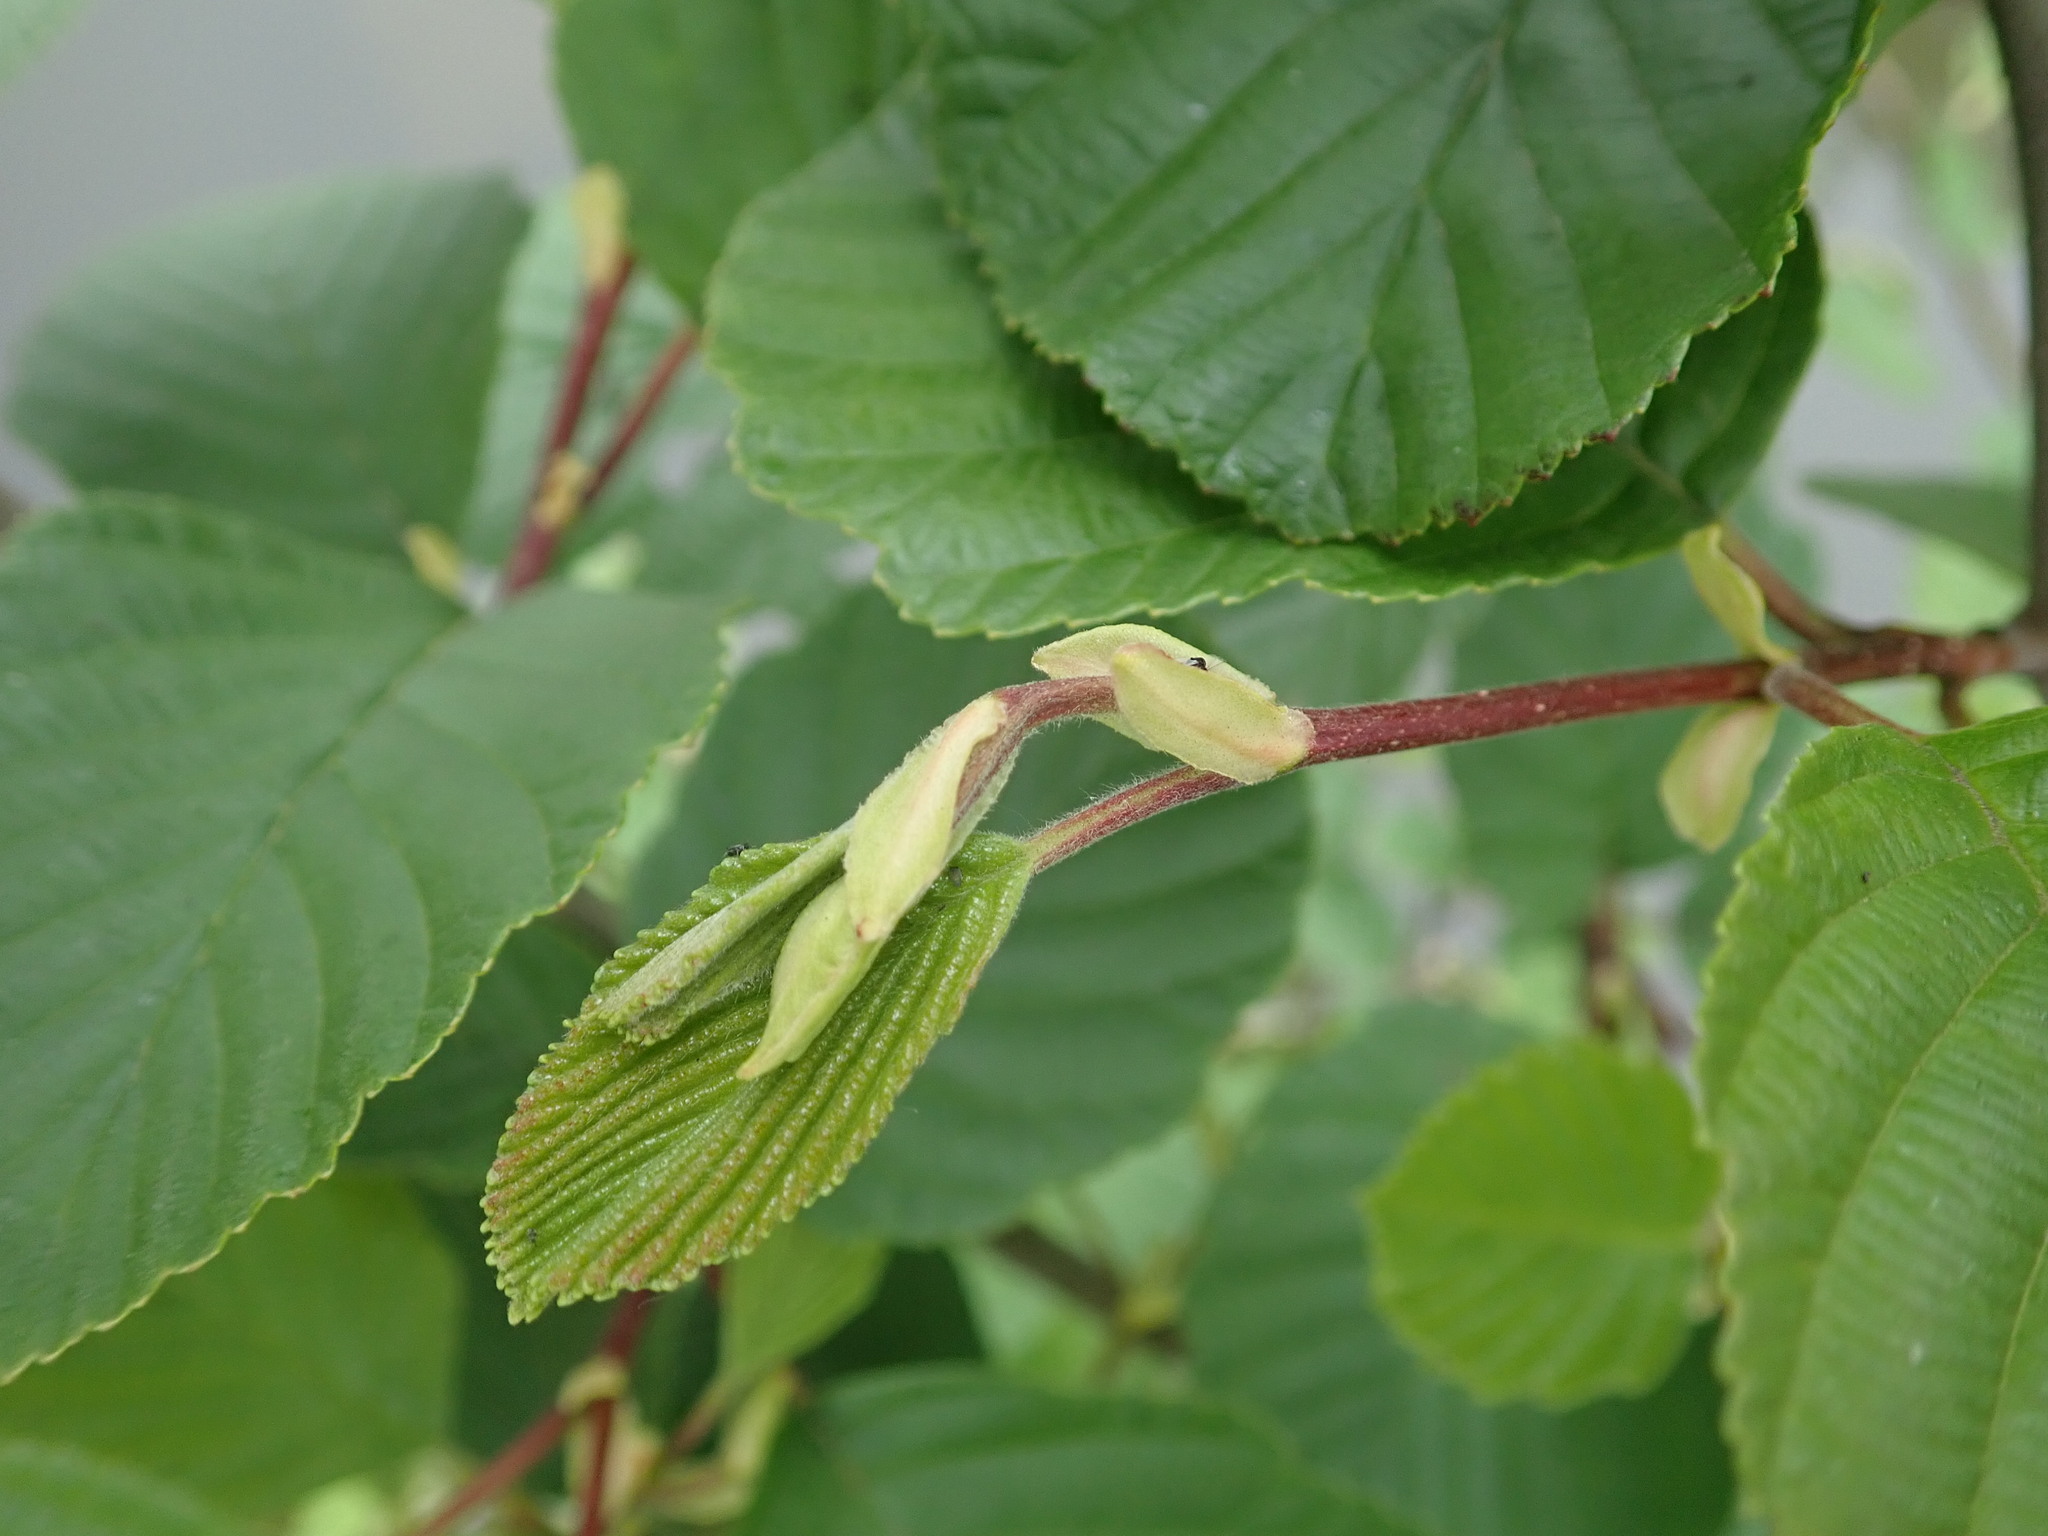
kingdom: Plantae
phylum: Tracheophyta
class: Magnoliopsida
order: Fagales
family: Betulaceae
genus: Alnus
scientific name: Alnus glutinosa
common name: Black alder
